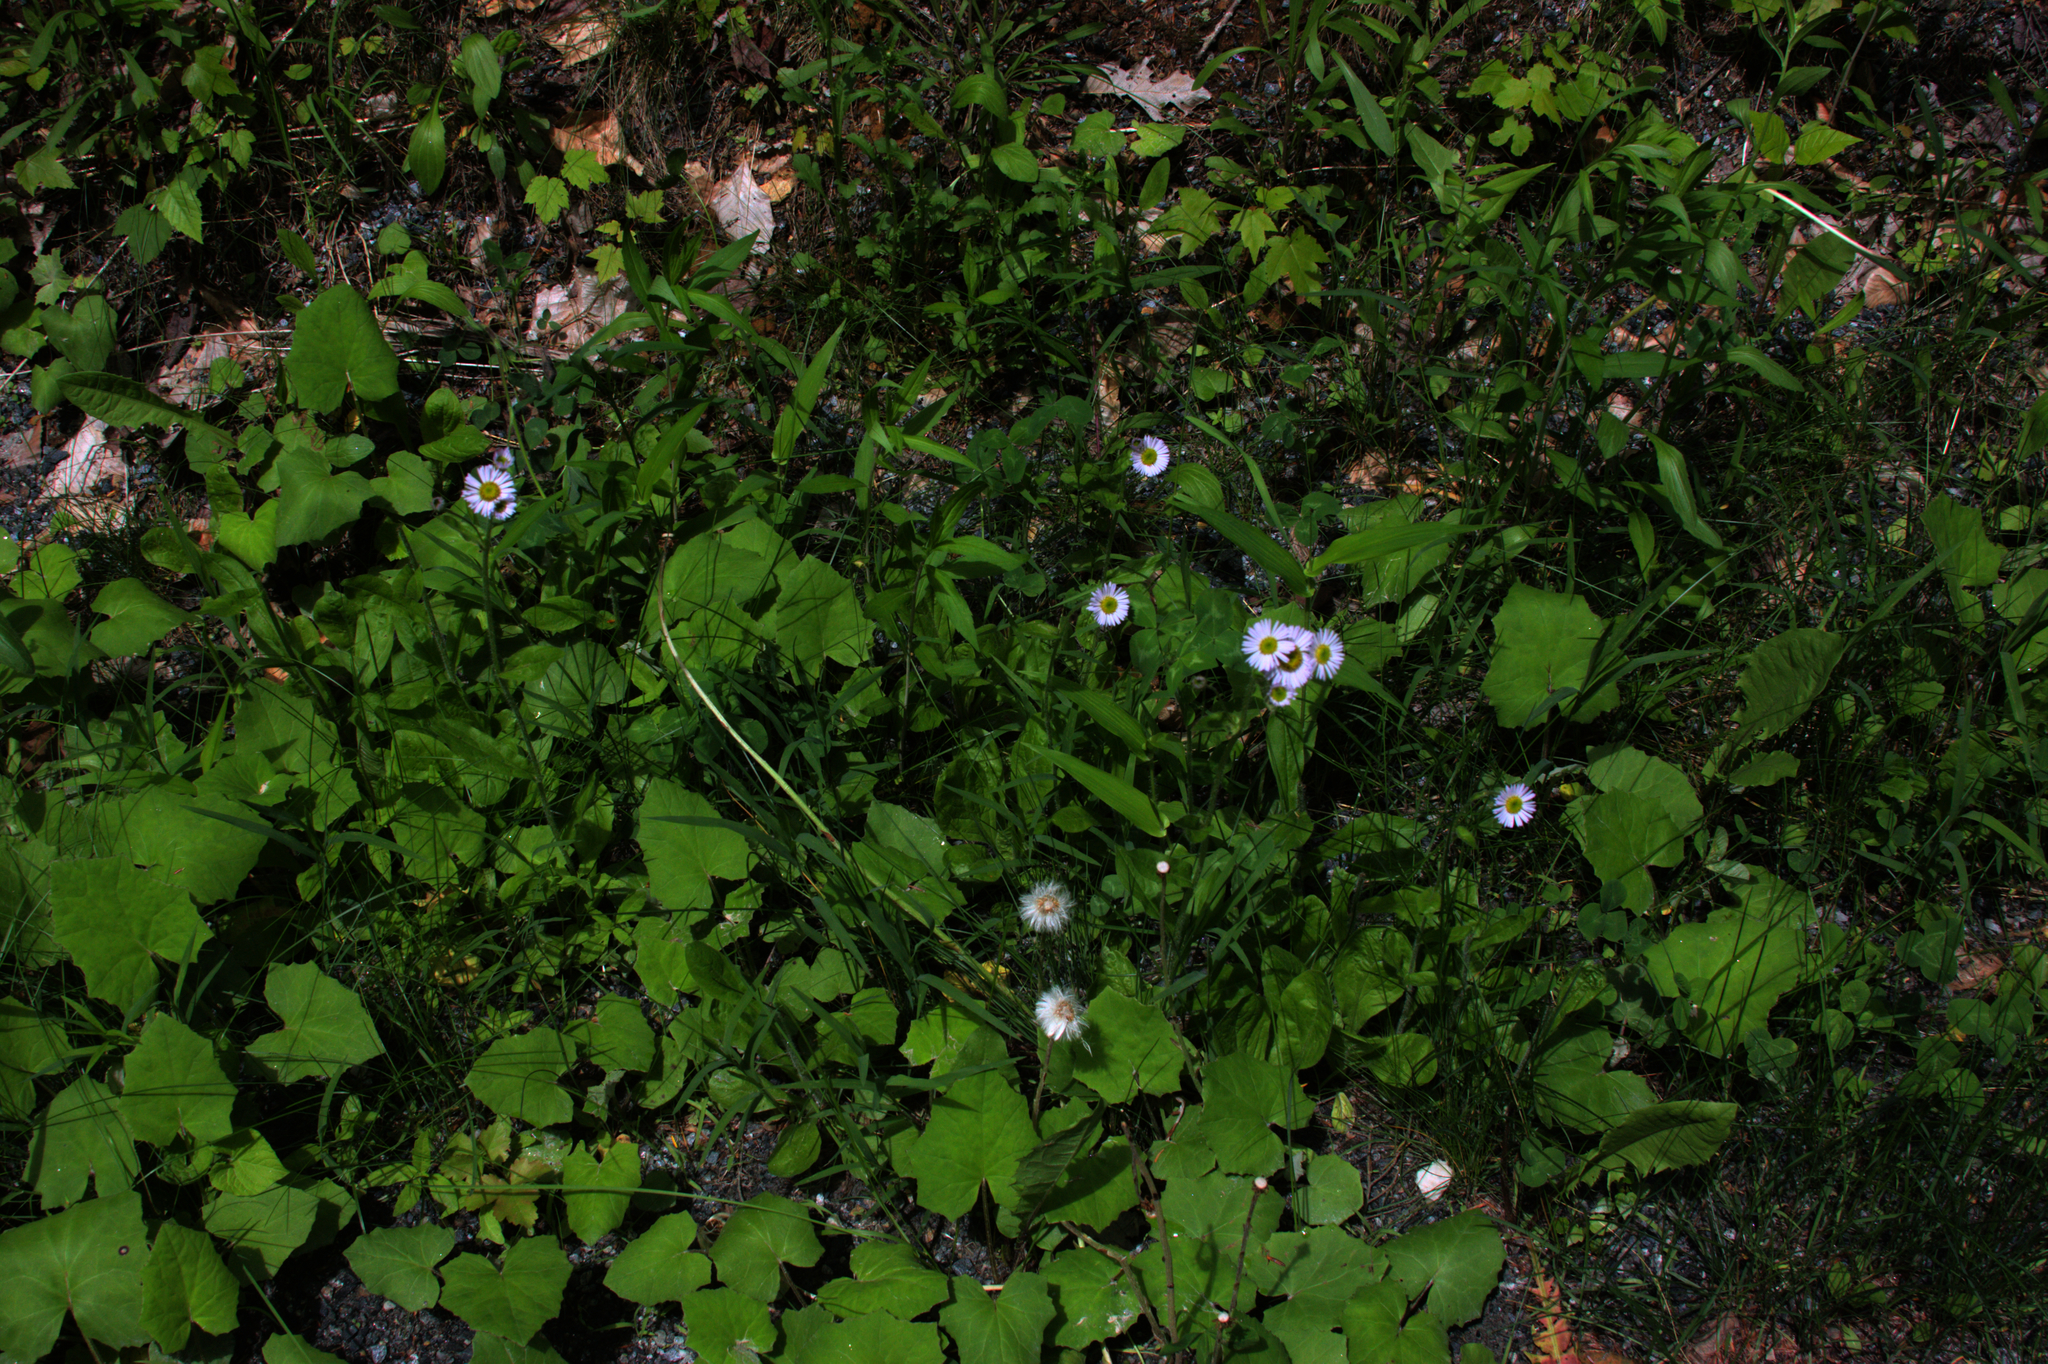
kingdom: Plantae
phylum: Tracheophyta
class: Magnoliopsida
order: Asterales
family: Asteraceae
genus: Erigeron
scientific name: Erigeron pulchellus
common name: Hairy fleabane
